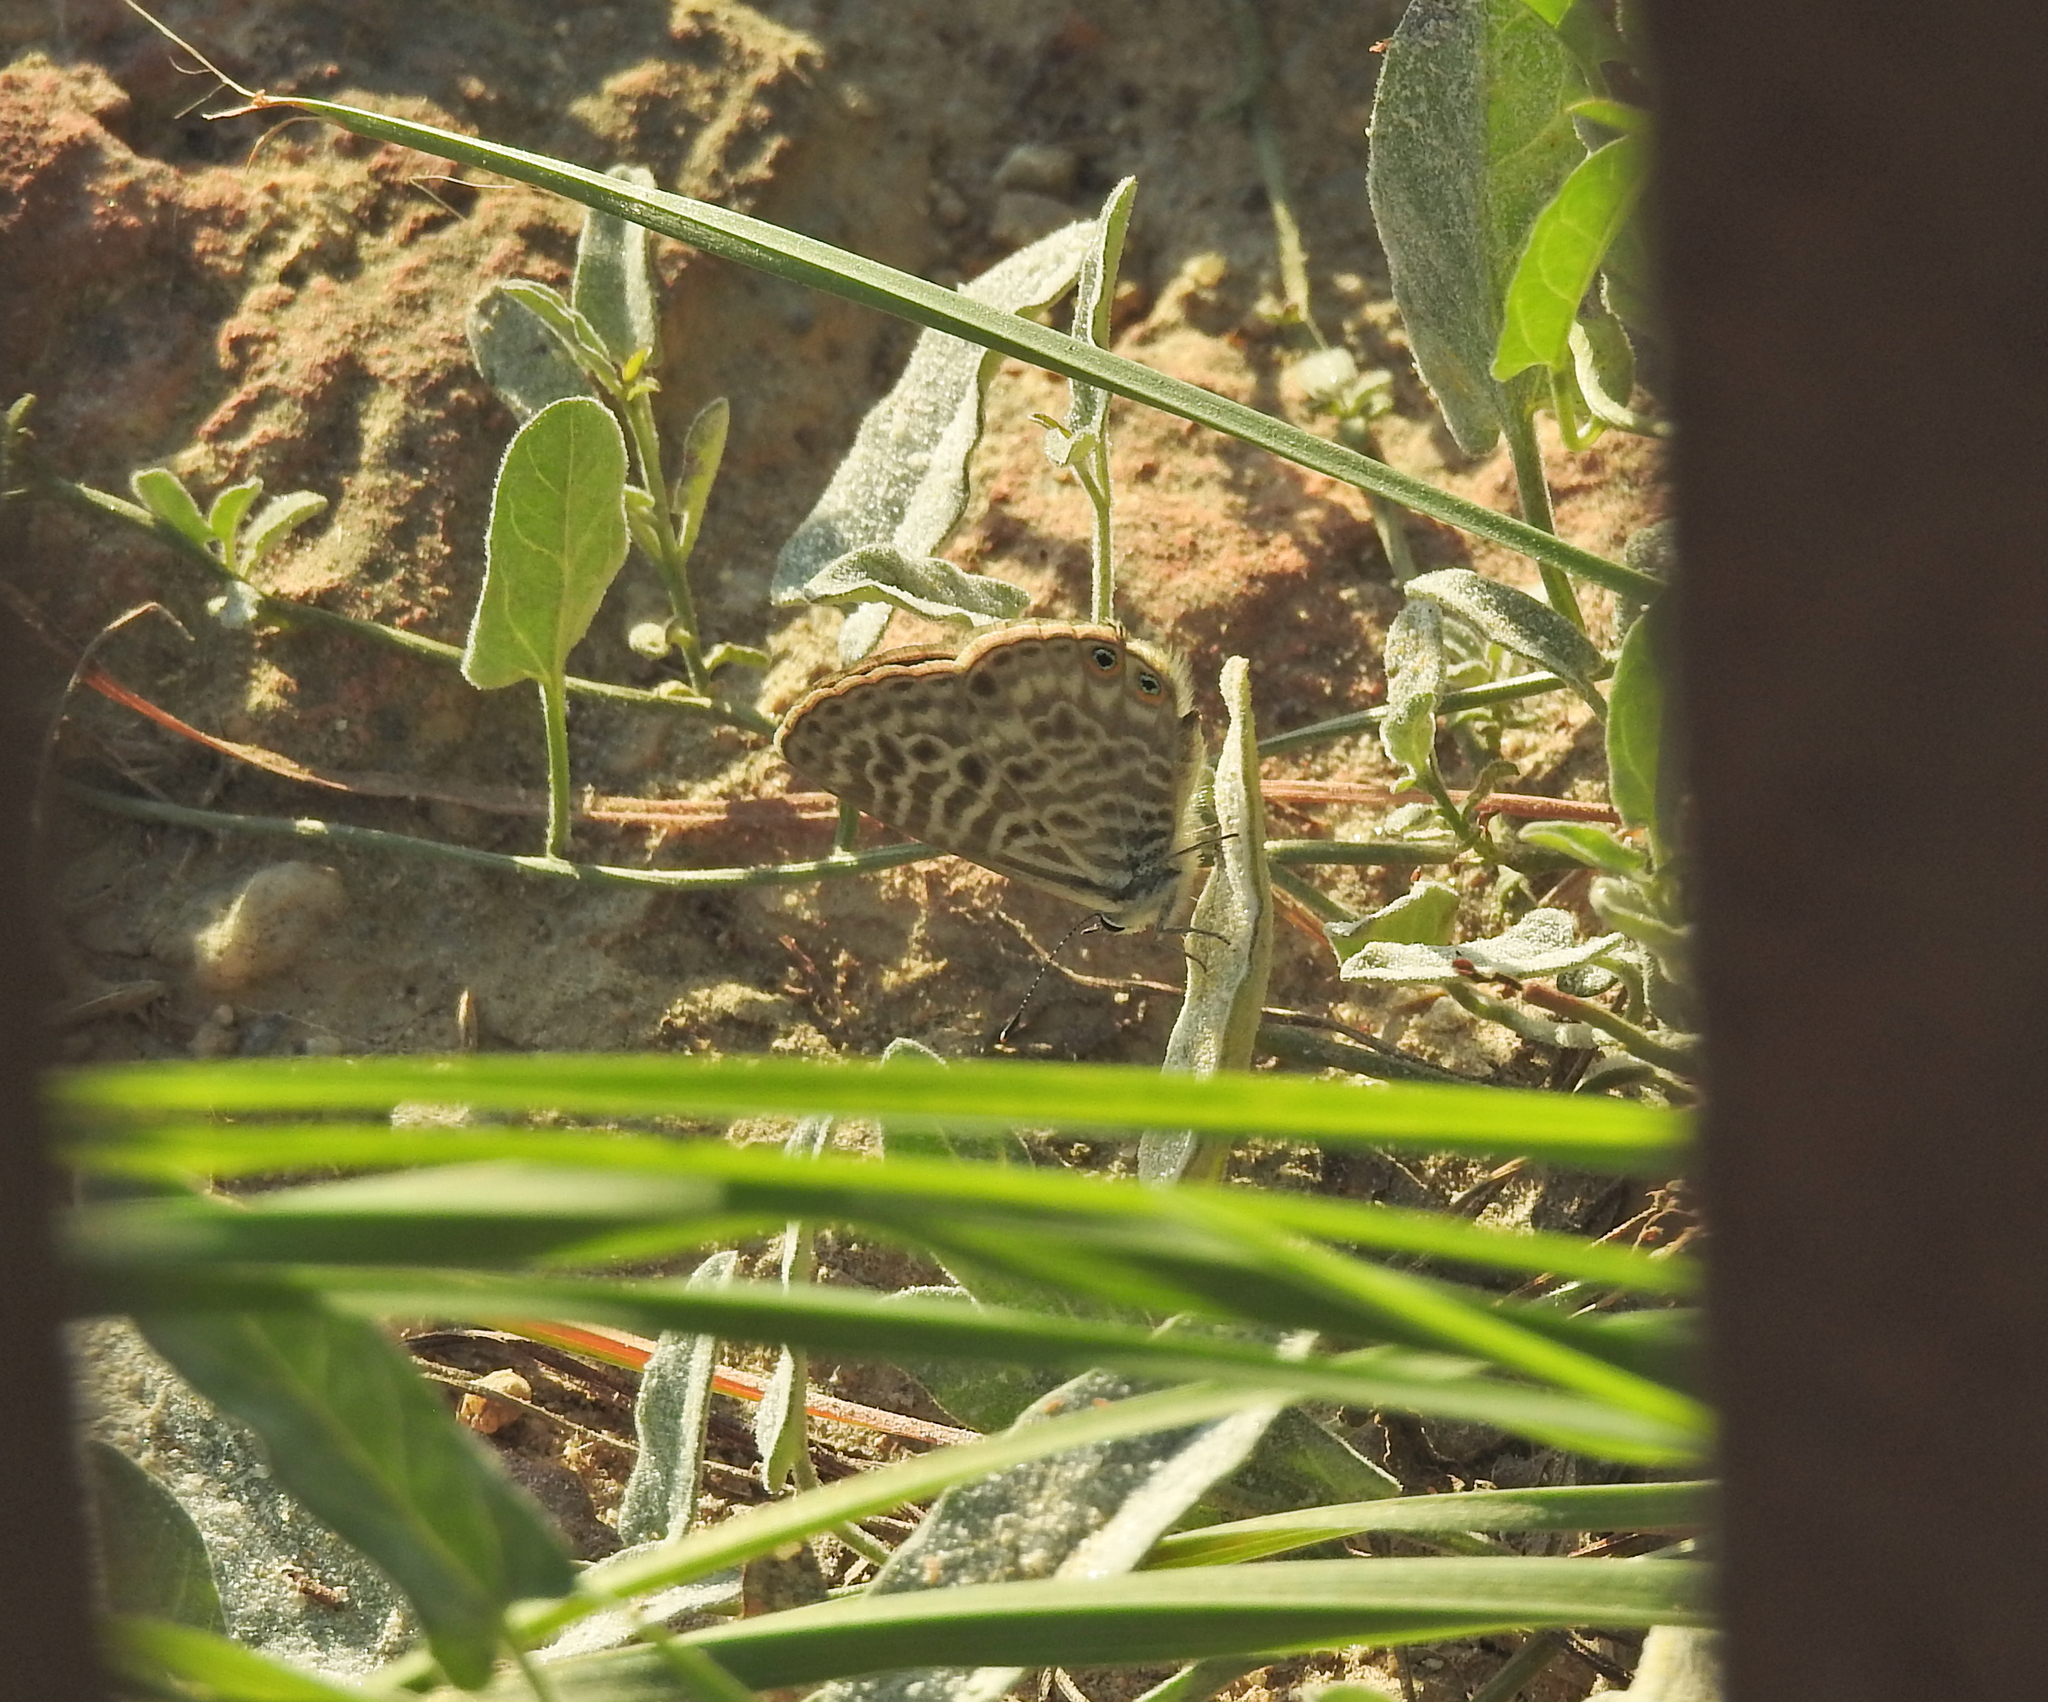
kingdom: Animalia
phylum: Arthropoda
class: Insecta
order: Lepidoptera
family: Lycaenidae
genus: Leptotes
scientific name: Leptotes pirithous
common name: Lang's short-tailed blue
